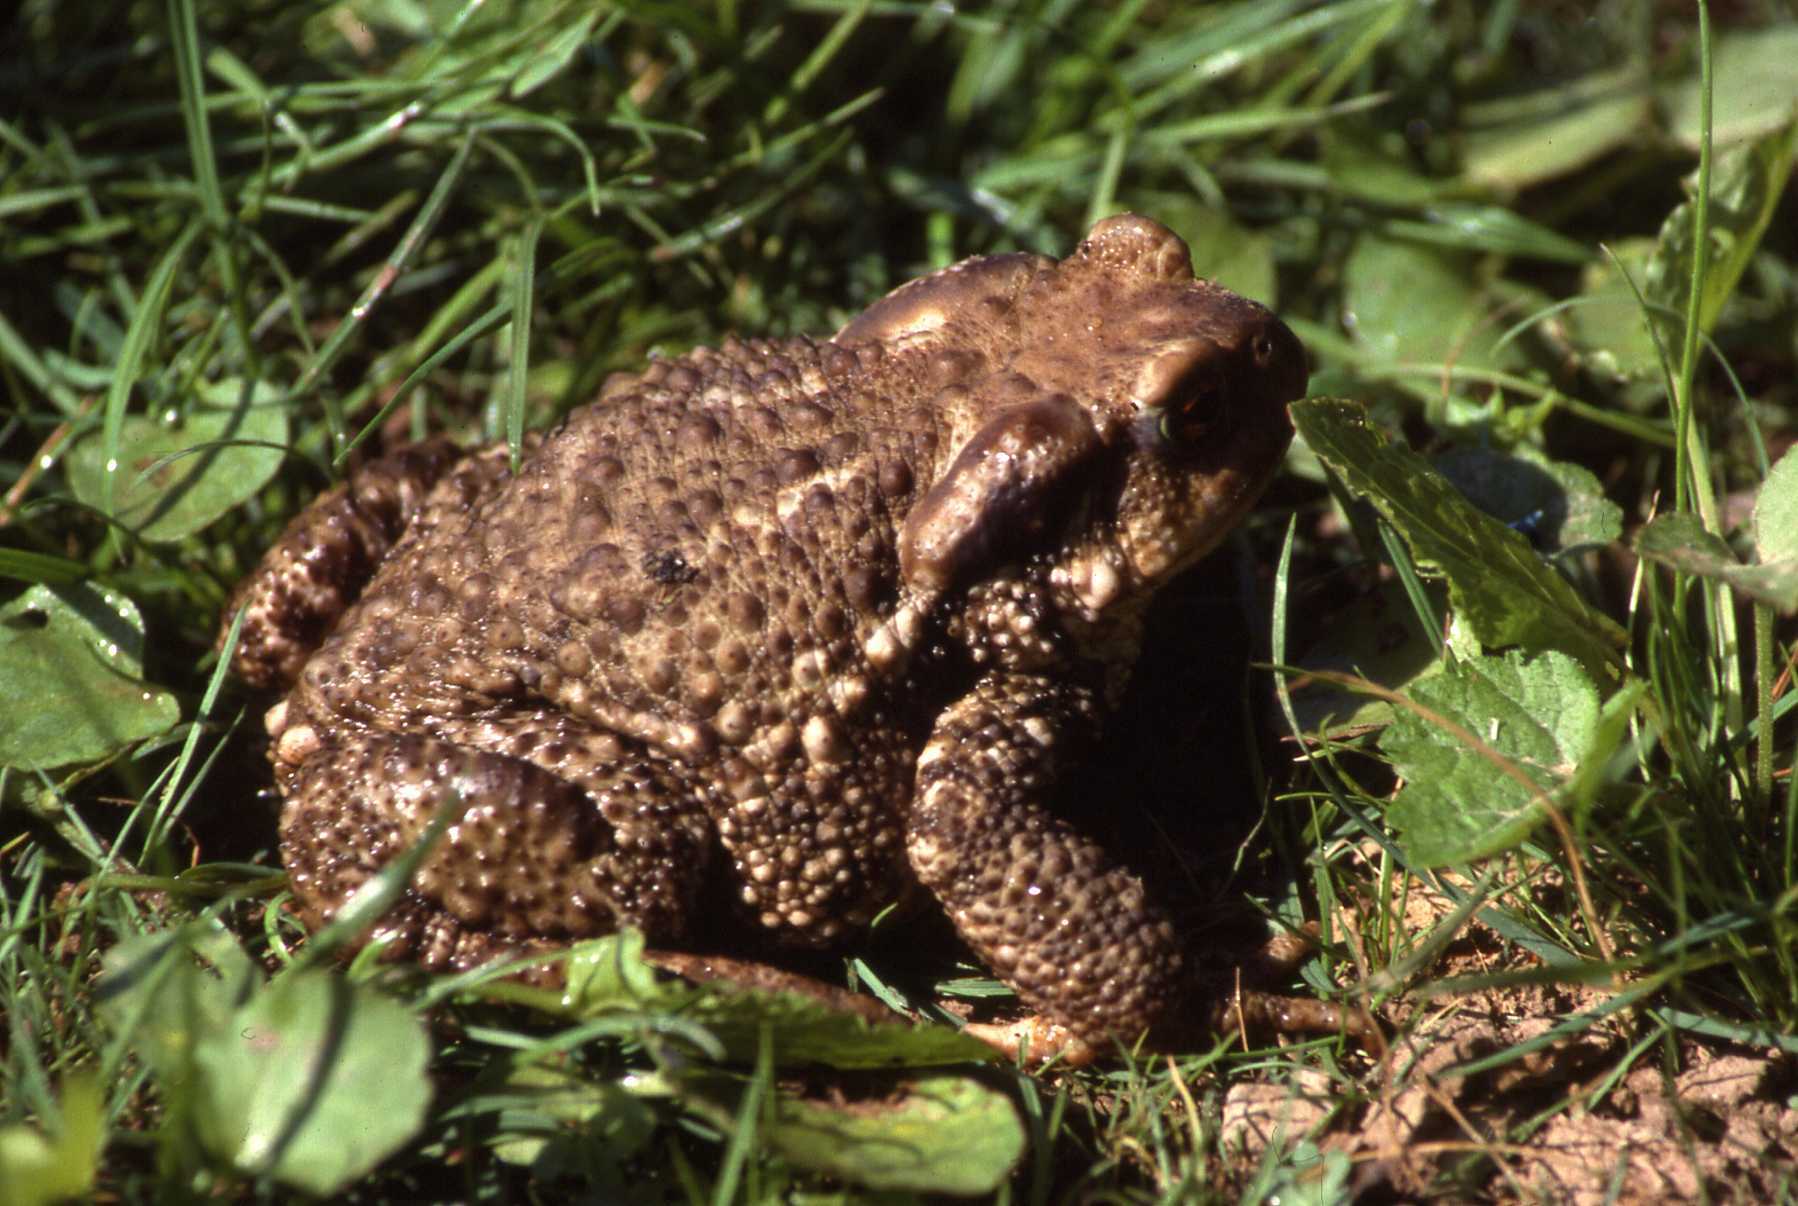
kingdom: Animalia
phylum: Chordata
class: Amphibia
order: Anura
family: Bufonidae
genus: Bufo
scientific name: Bufo spinosus
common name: Western common toad
